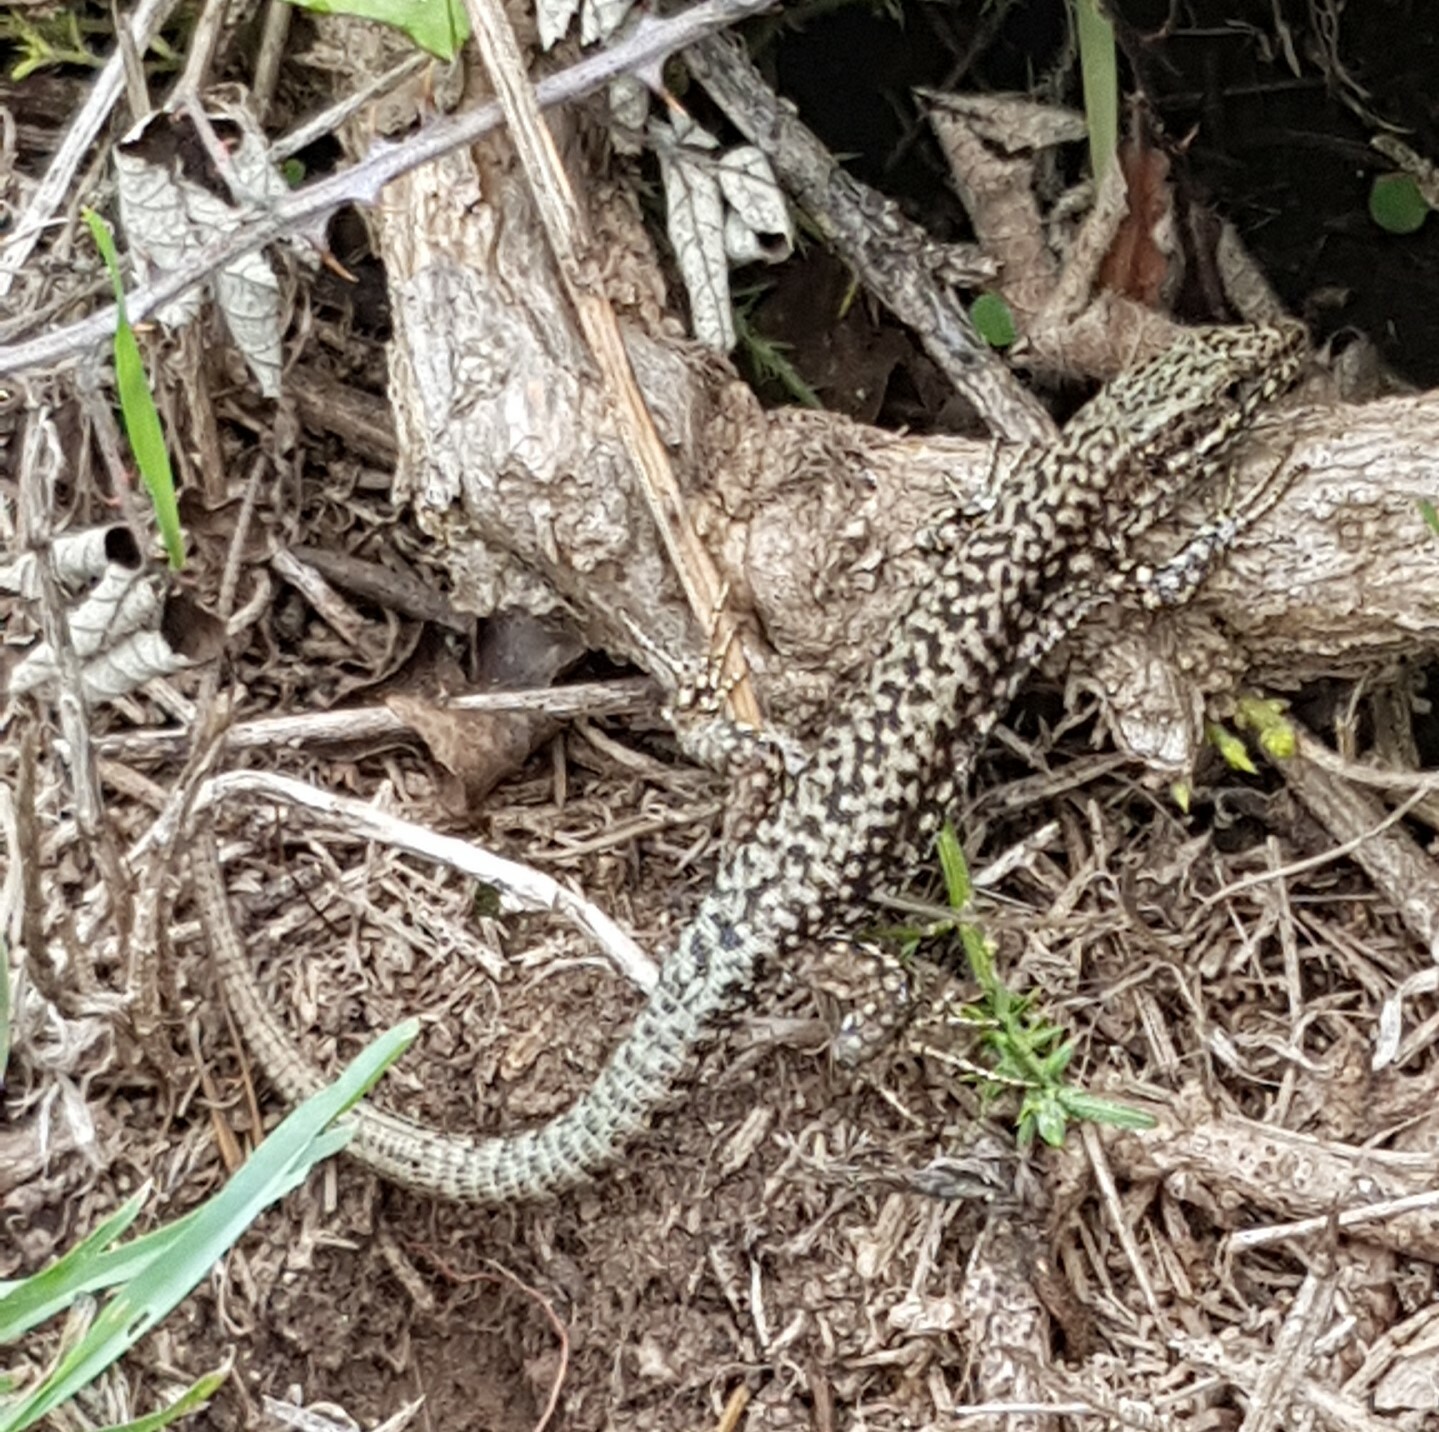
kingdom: Animalia
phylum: Chordata
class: Squamata
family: Lacertidae
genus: Podarcis
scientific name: Podarcis muralis
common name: Common wall lizard
